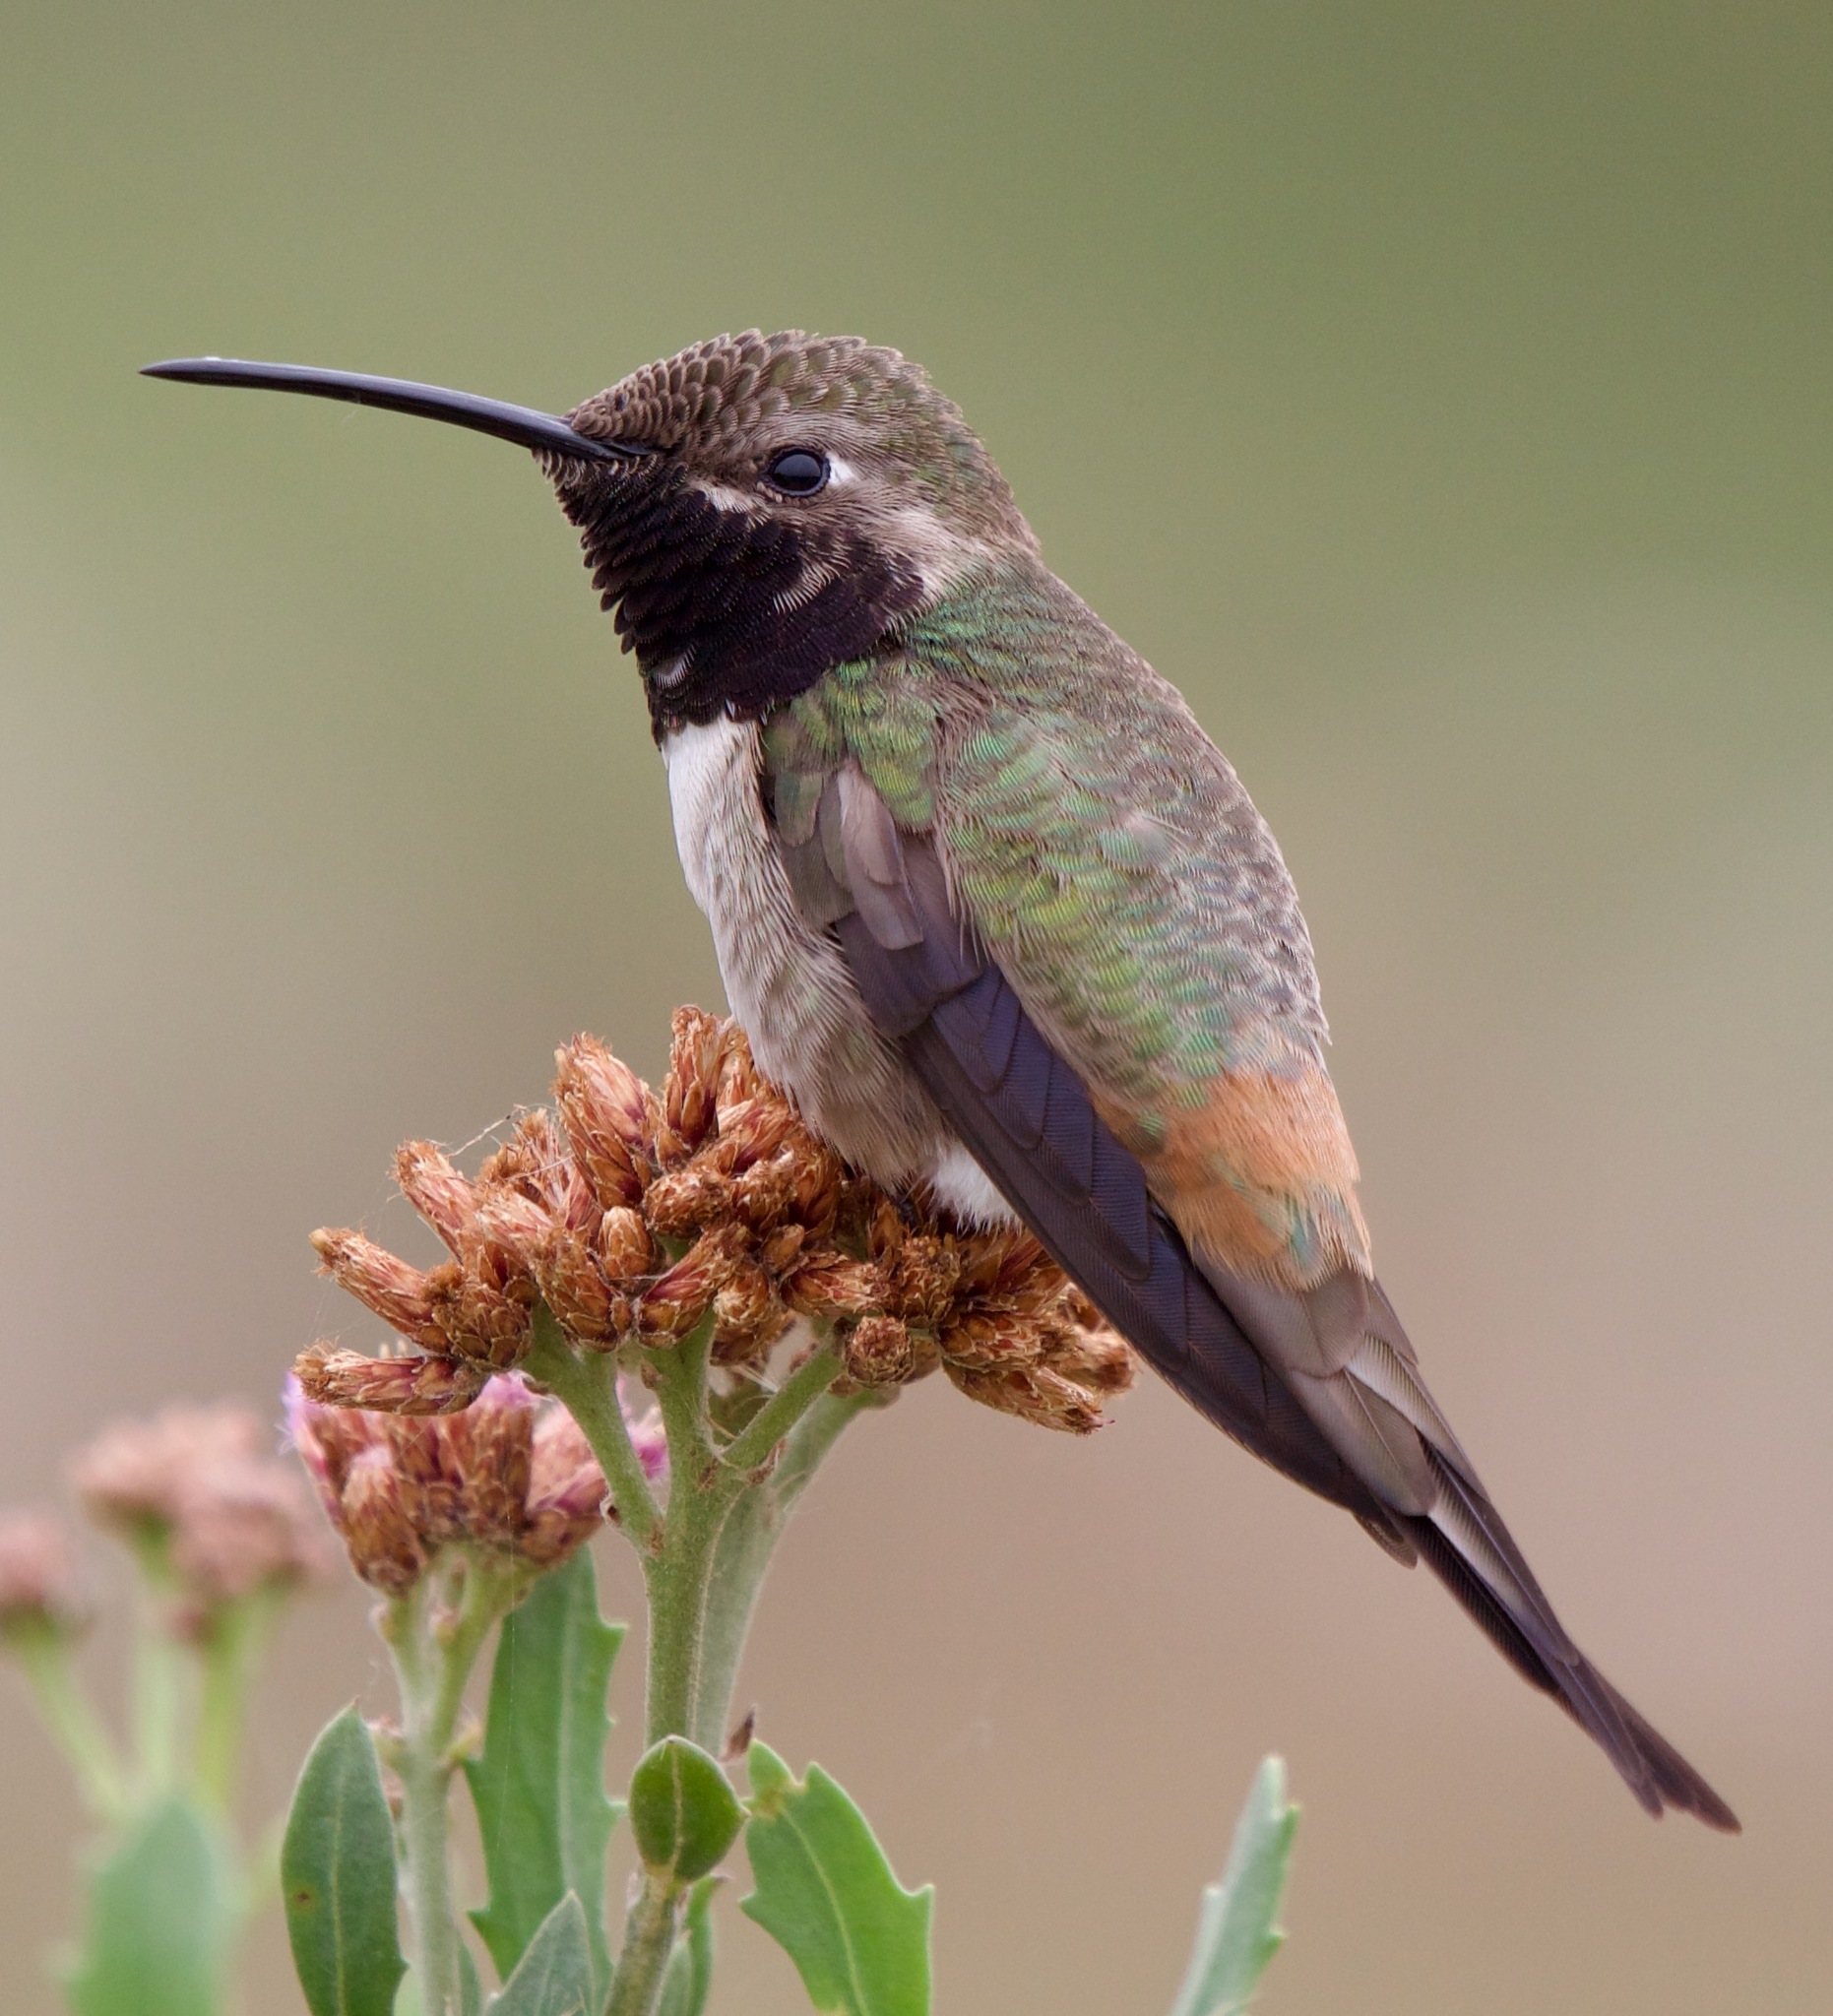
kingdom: Animalia
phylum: Chordata
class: Aves
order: Apodiformes
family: Trochilidae
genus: Rhodopis
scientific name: Rhodopis vesper
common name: Oasis hummingbird
